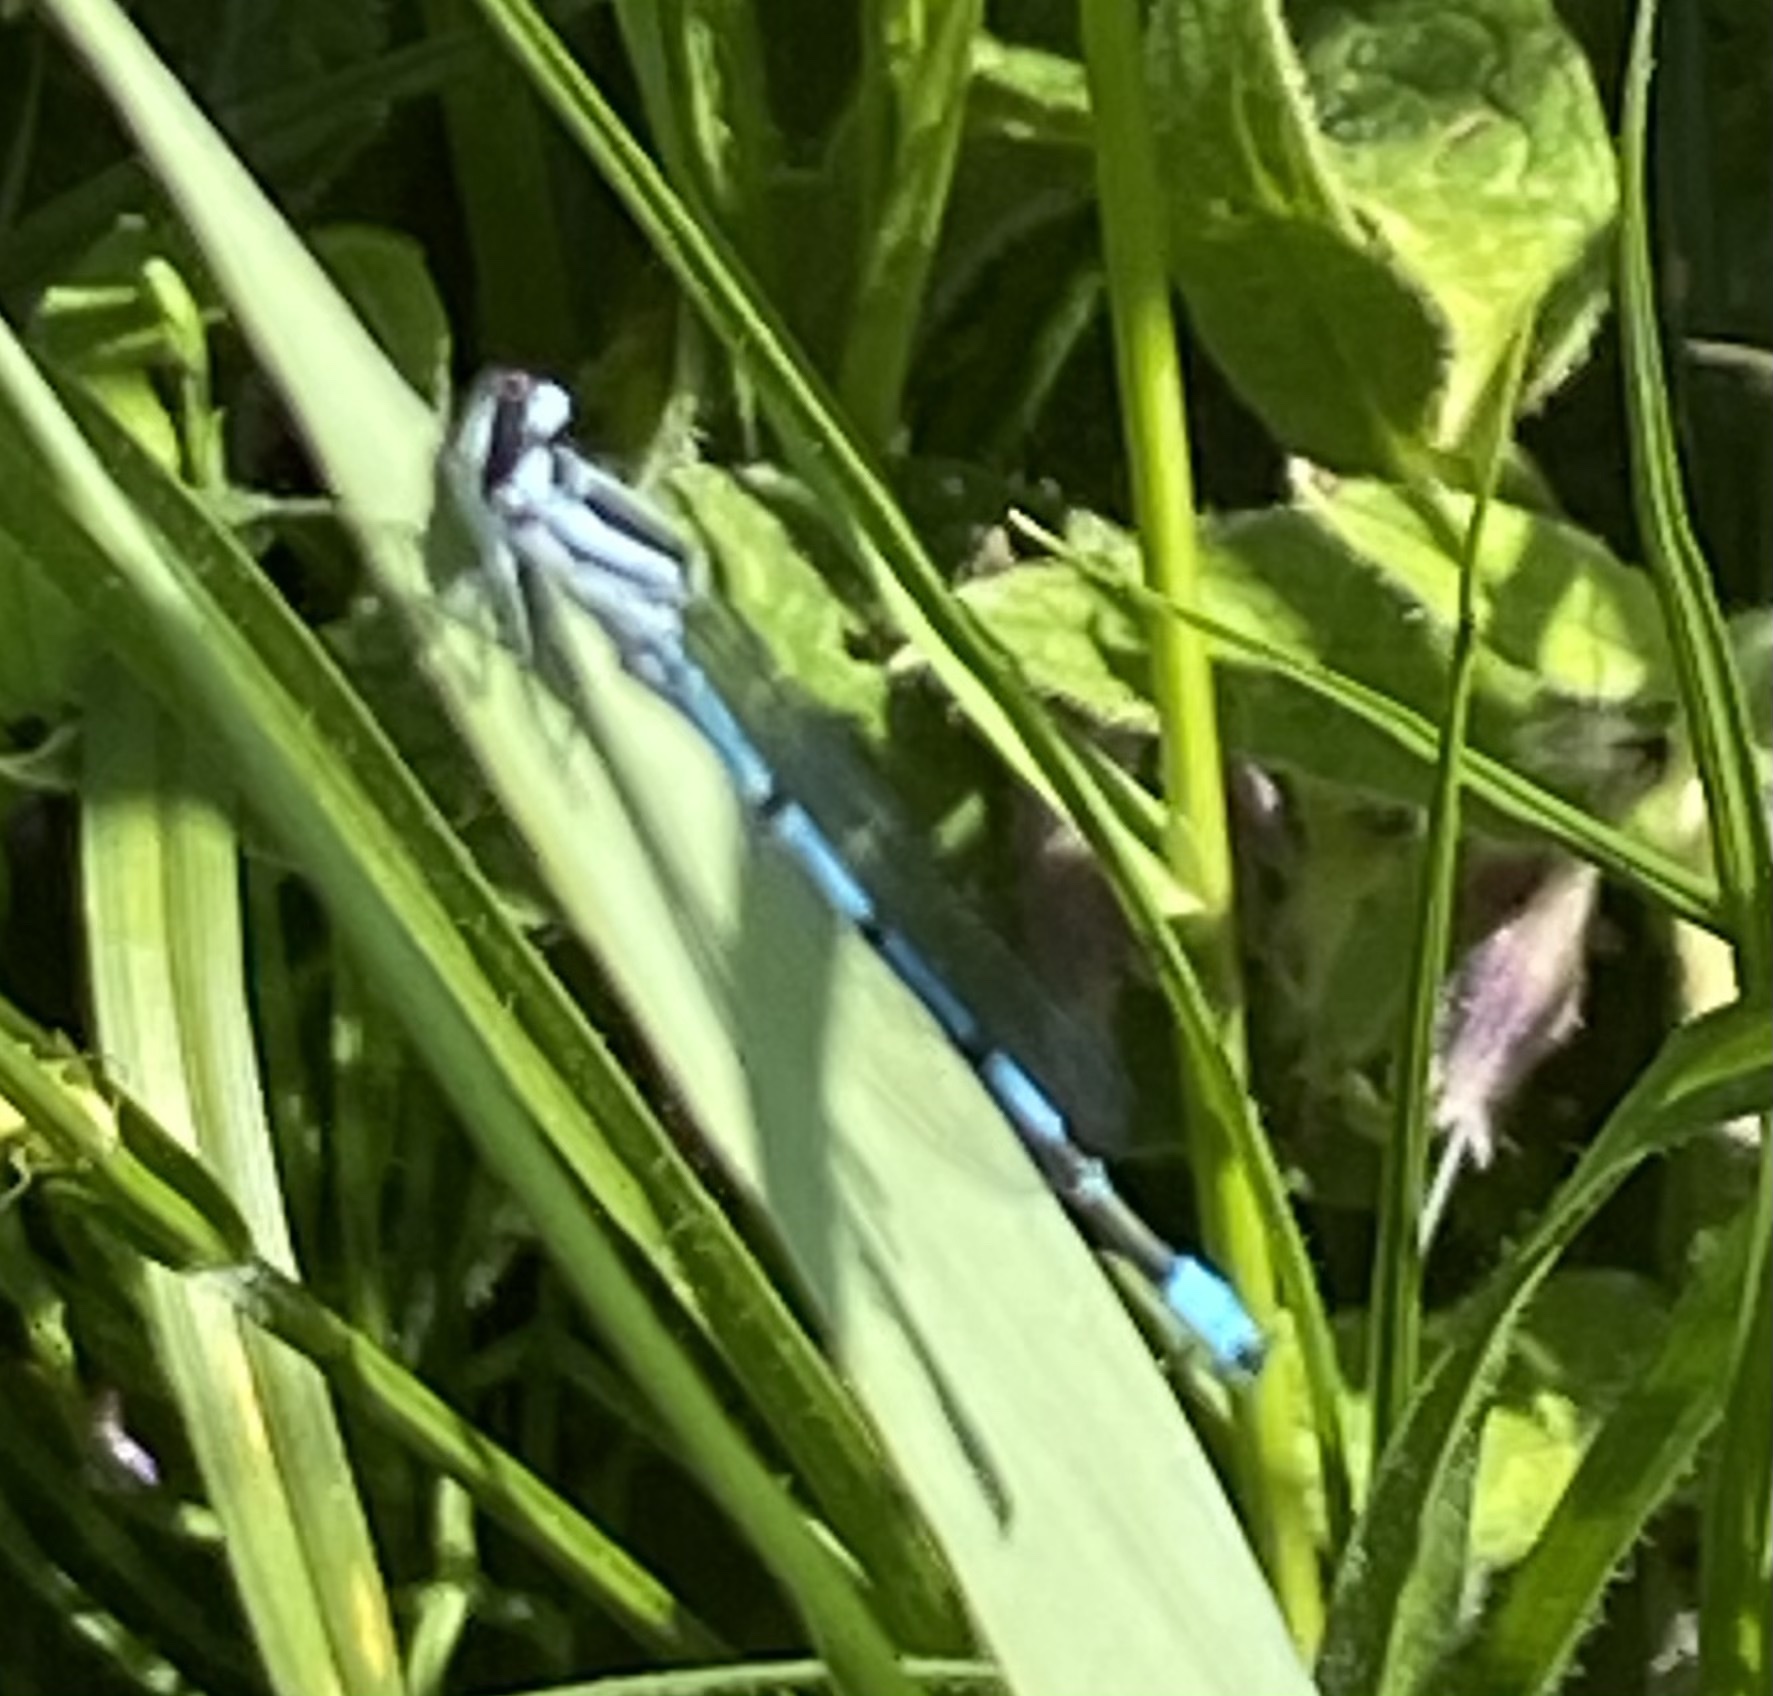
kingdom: Animalia
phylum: Arthropoda
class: Insecta
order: Odonata
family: Coenagrionidae
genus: Coenagrion
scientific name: Coenagrion puella
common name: Azure damselfly
